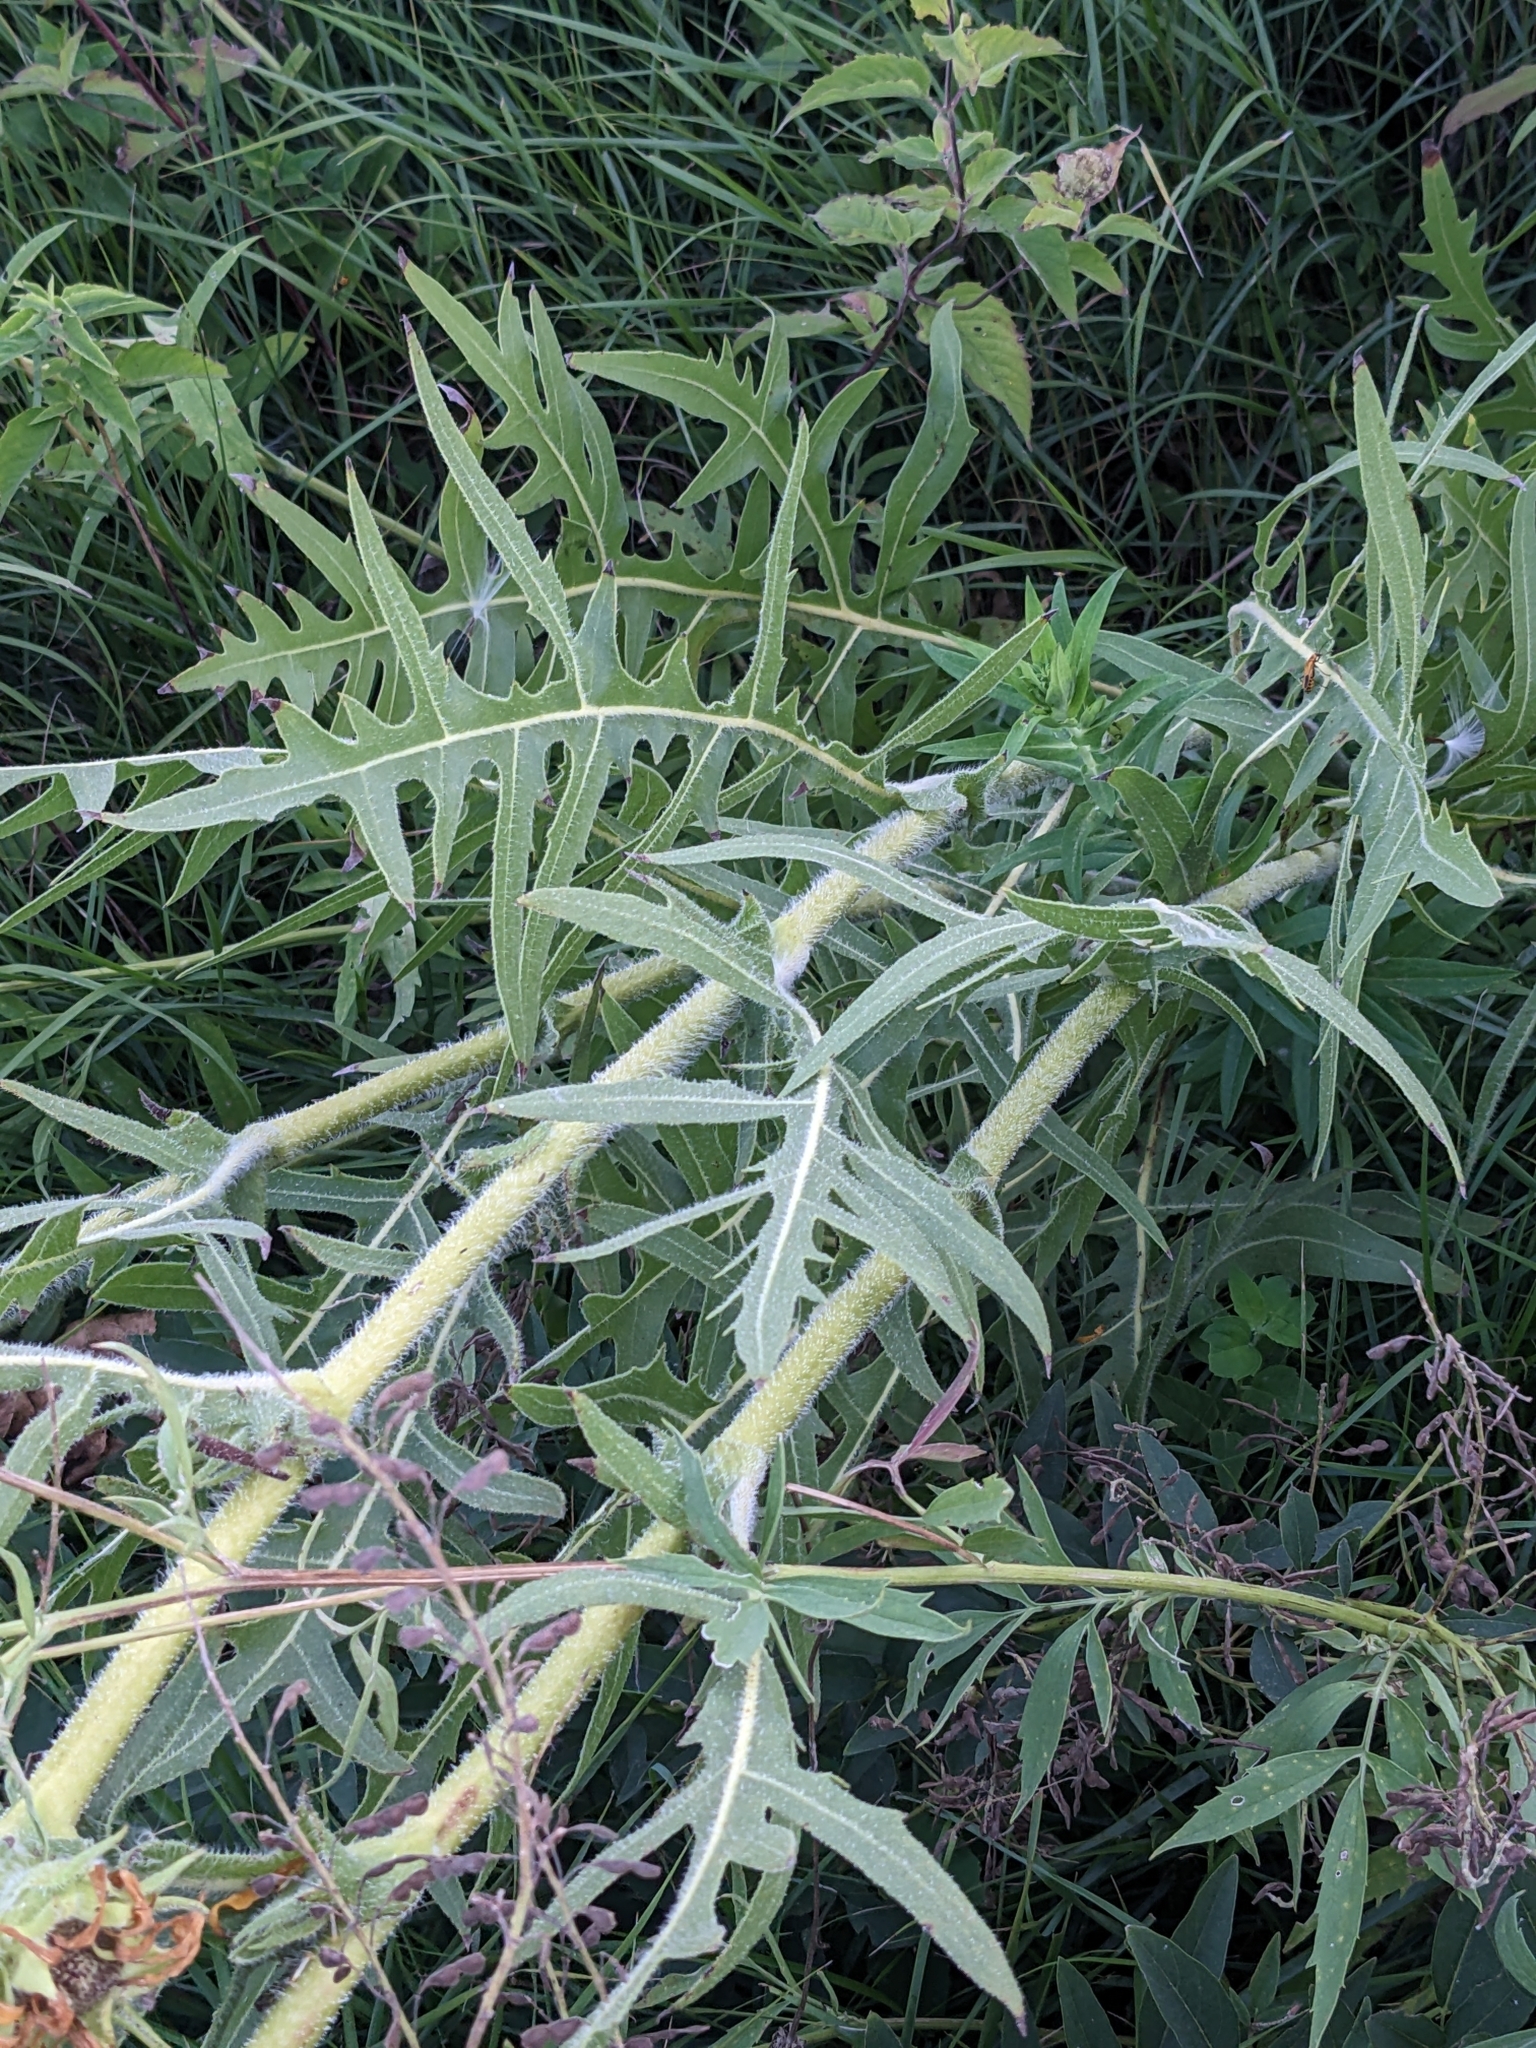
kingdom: Plantae
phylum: Tracheophyta
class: Magnoliopsida
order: Asterales
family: Asteraceae
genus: Silphium
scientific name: Silphium laciniatum
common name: Polarplant
